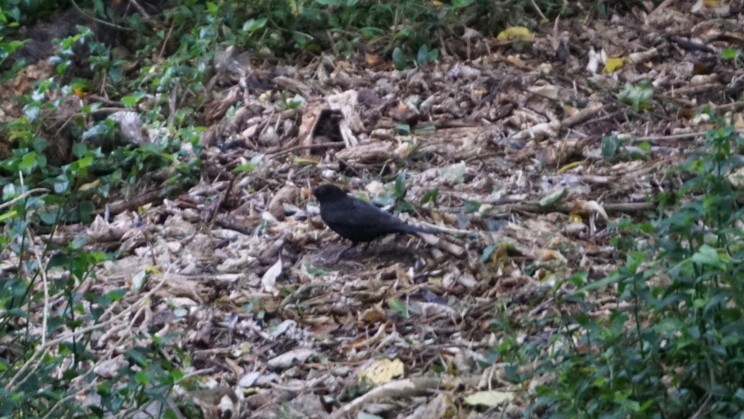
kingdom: Animalia
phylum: Chordata
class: Aves
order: Passeriformes
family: Turdidae
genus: Turdus
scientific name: Turdus merula
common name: Common blackbird
